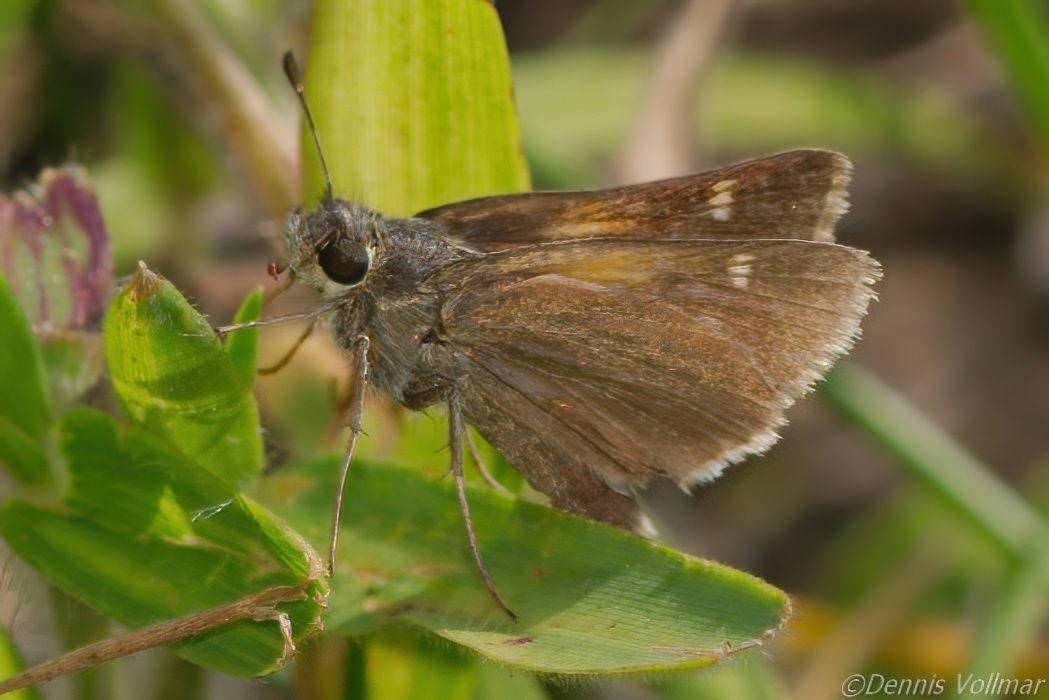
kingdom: Animalia
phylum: Arthropoda
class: Insecta
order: Lepidoptera
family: Hesperiidae
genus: Polites
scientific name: Polites themistocles
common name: Tawny-edged skipper
